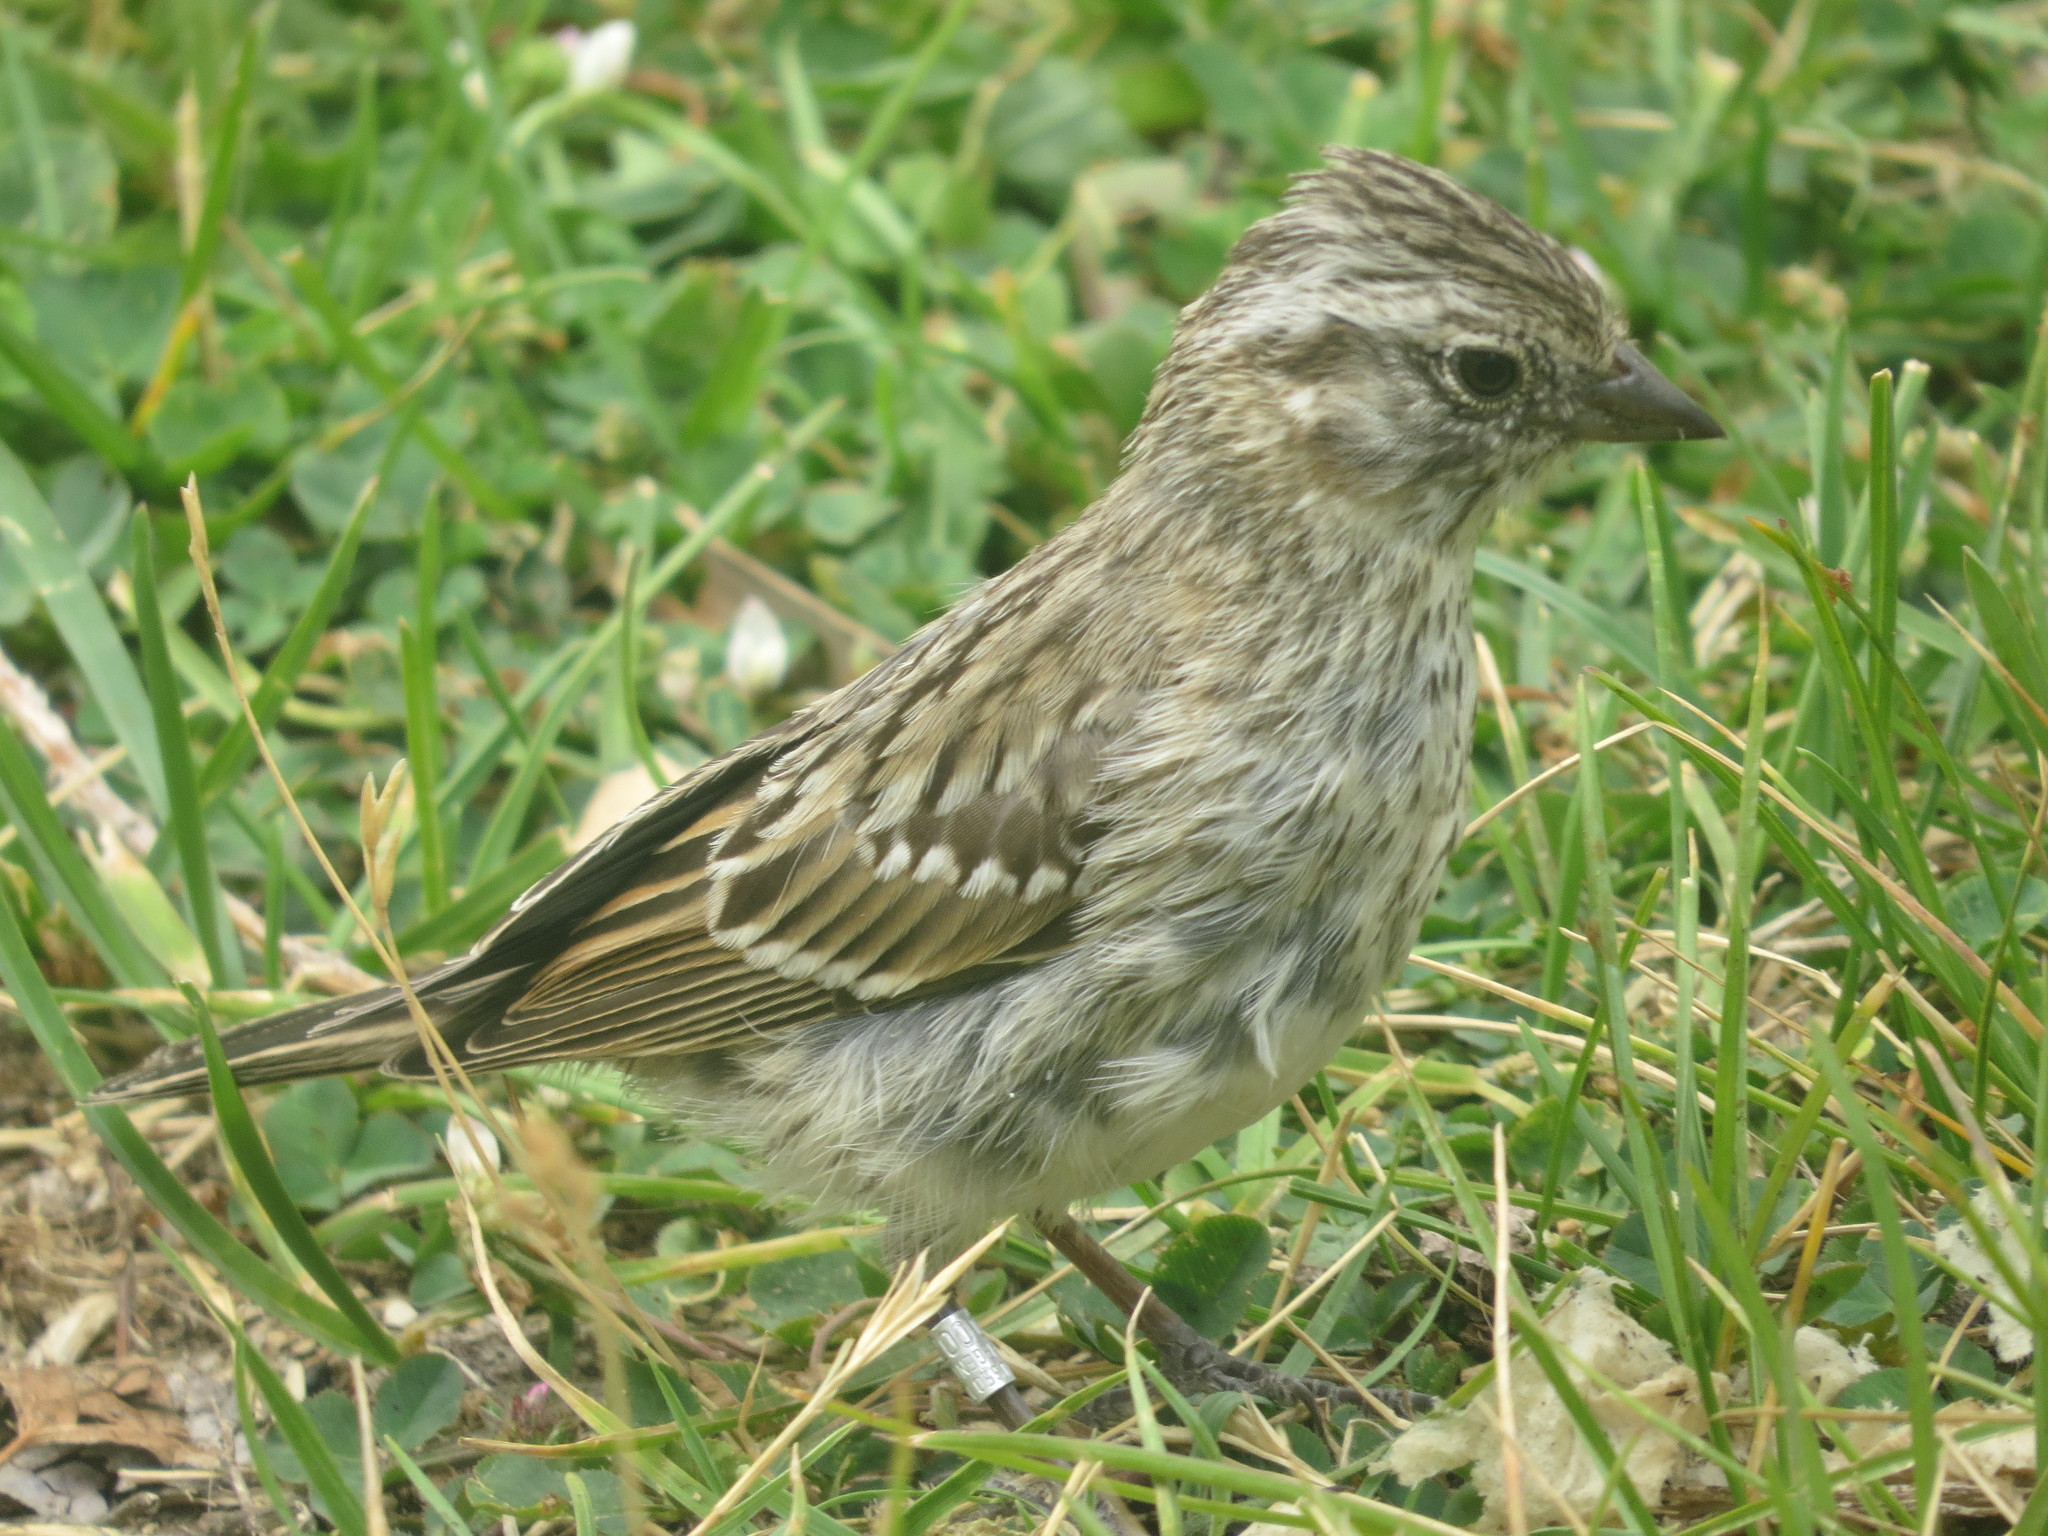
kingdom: Animalia
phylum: Chordata
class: Aves
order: Passeriformes
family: Passerellidae
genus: Zonotrichia
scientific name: Zonotrichia capensis
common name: Rufous-collared sparrow
